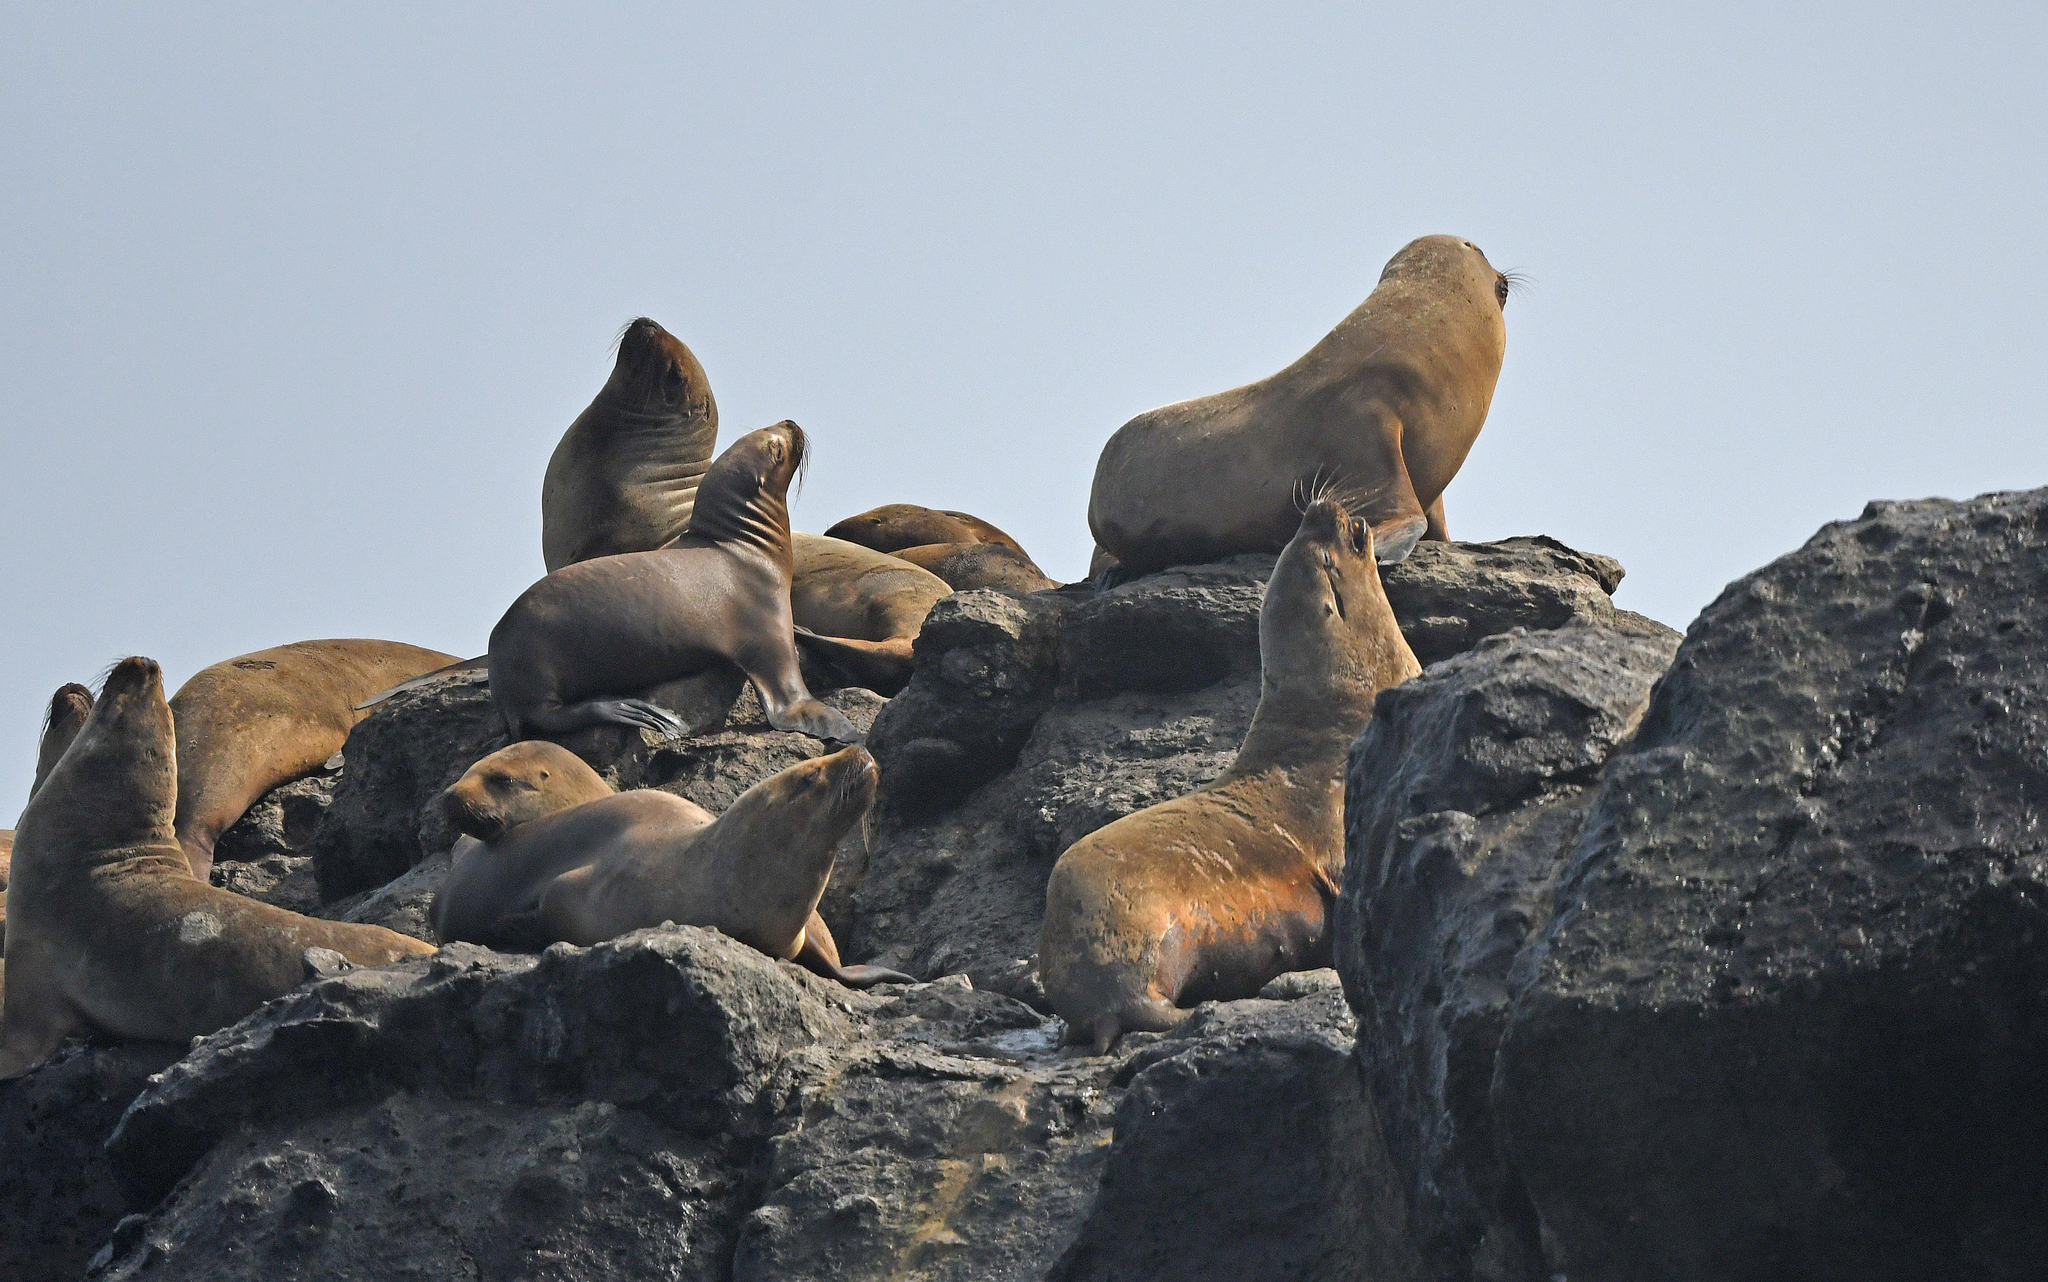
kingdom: Animalia
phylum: Chordata
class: Mammalia
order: Carnivora
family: Otariidae
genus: Otaria
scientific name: Otaria byronia
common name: South american sea lion
